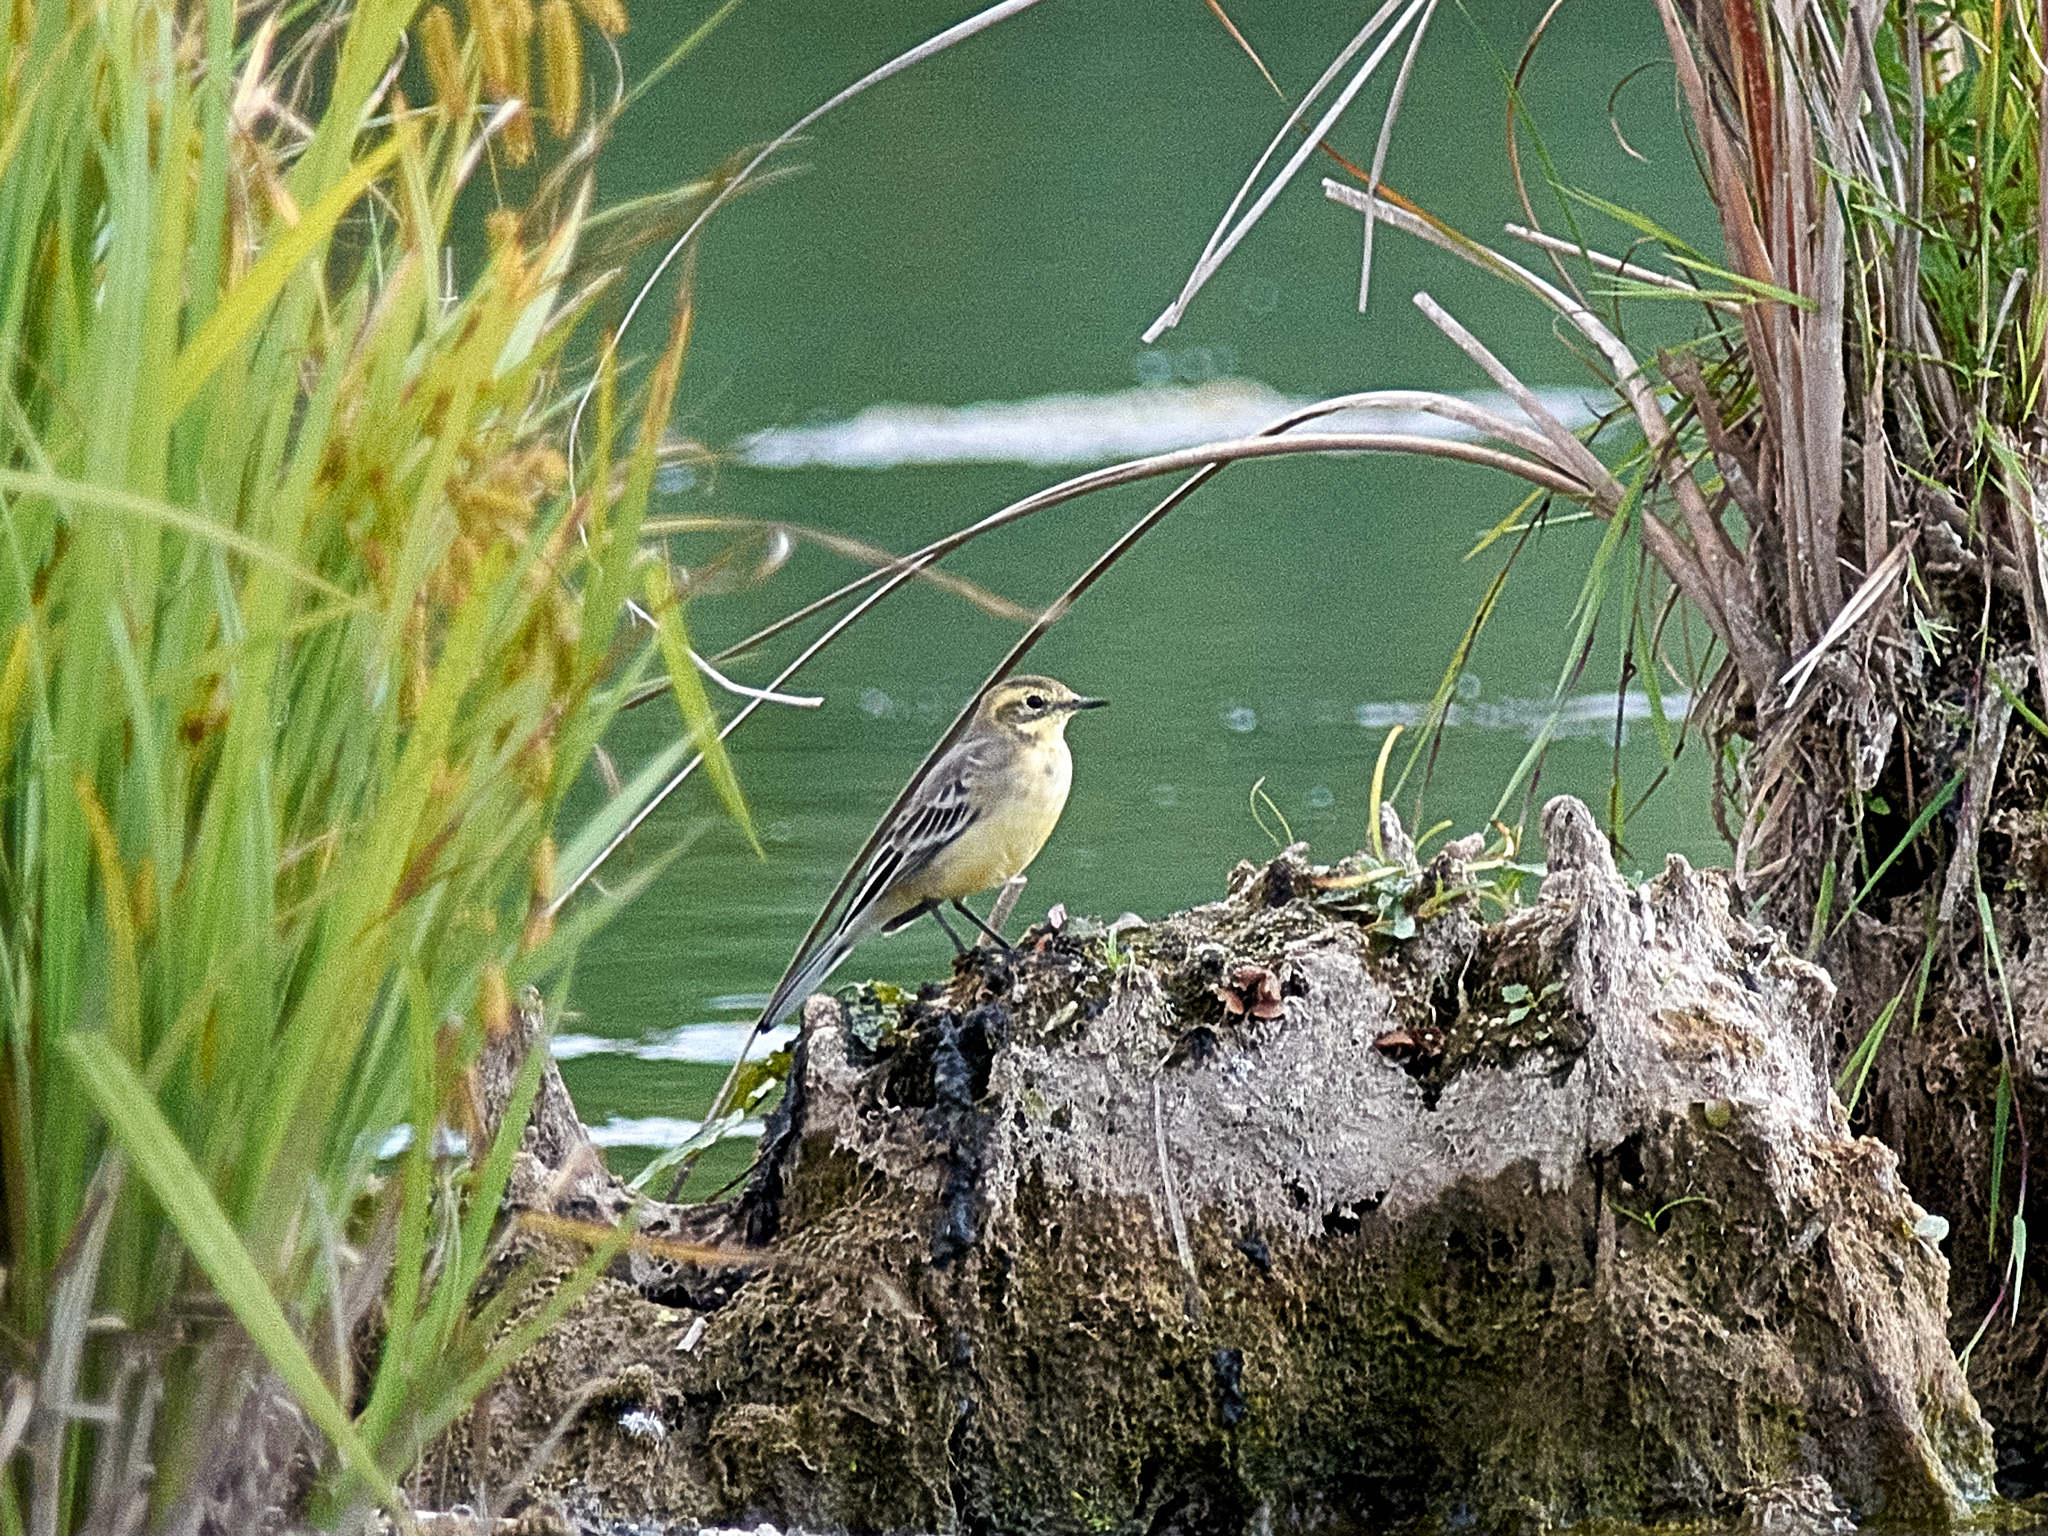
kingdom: Animalia
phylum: Chordata
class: Aves
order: Passeriformes
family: Motacillidae
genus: Motacilla
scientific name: Motacilla citreola
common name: Citrine wagtail
